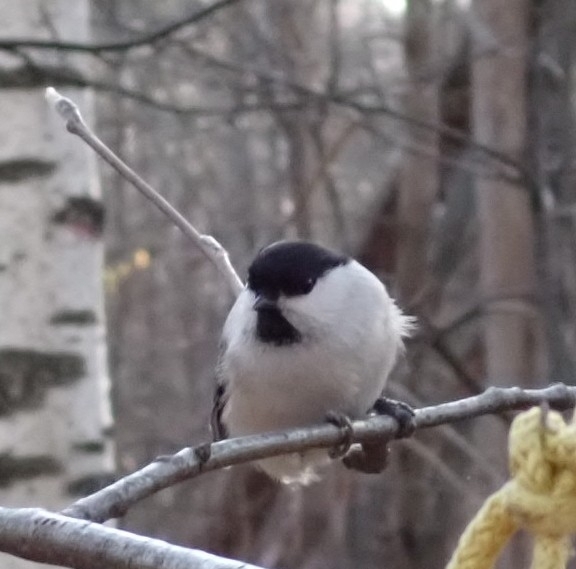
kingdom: Animalia
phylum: Chordata
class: Aves
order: Passeriformes
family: Paridae
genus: Poecile
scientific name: Poecile montanus
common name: Willow tit
